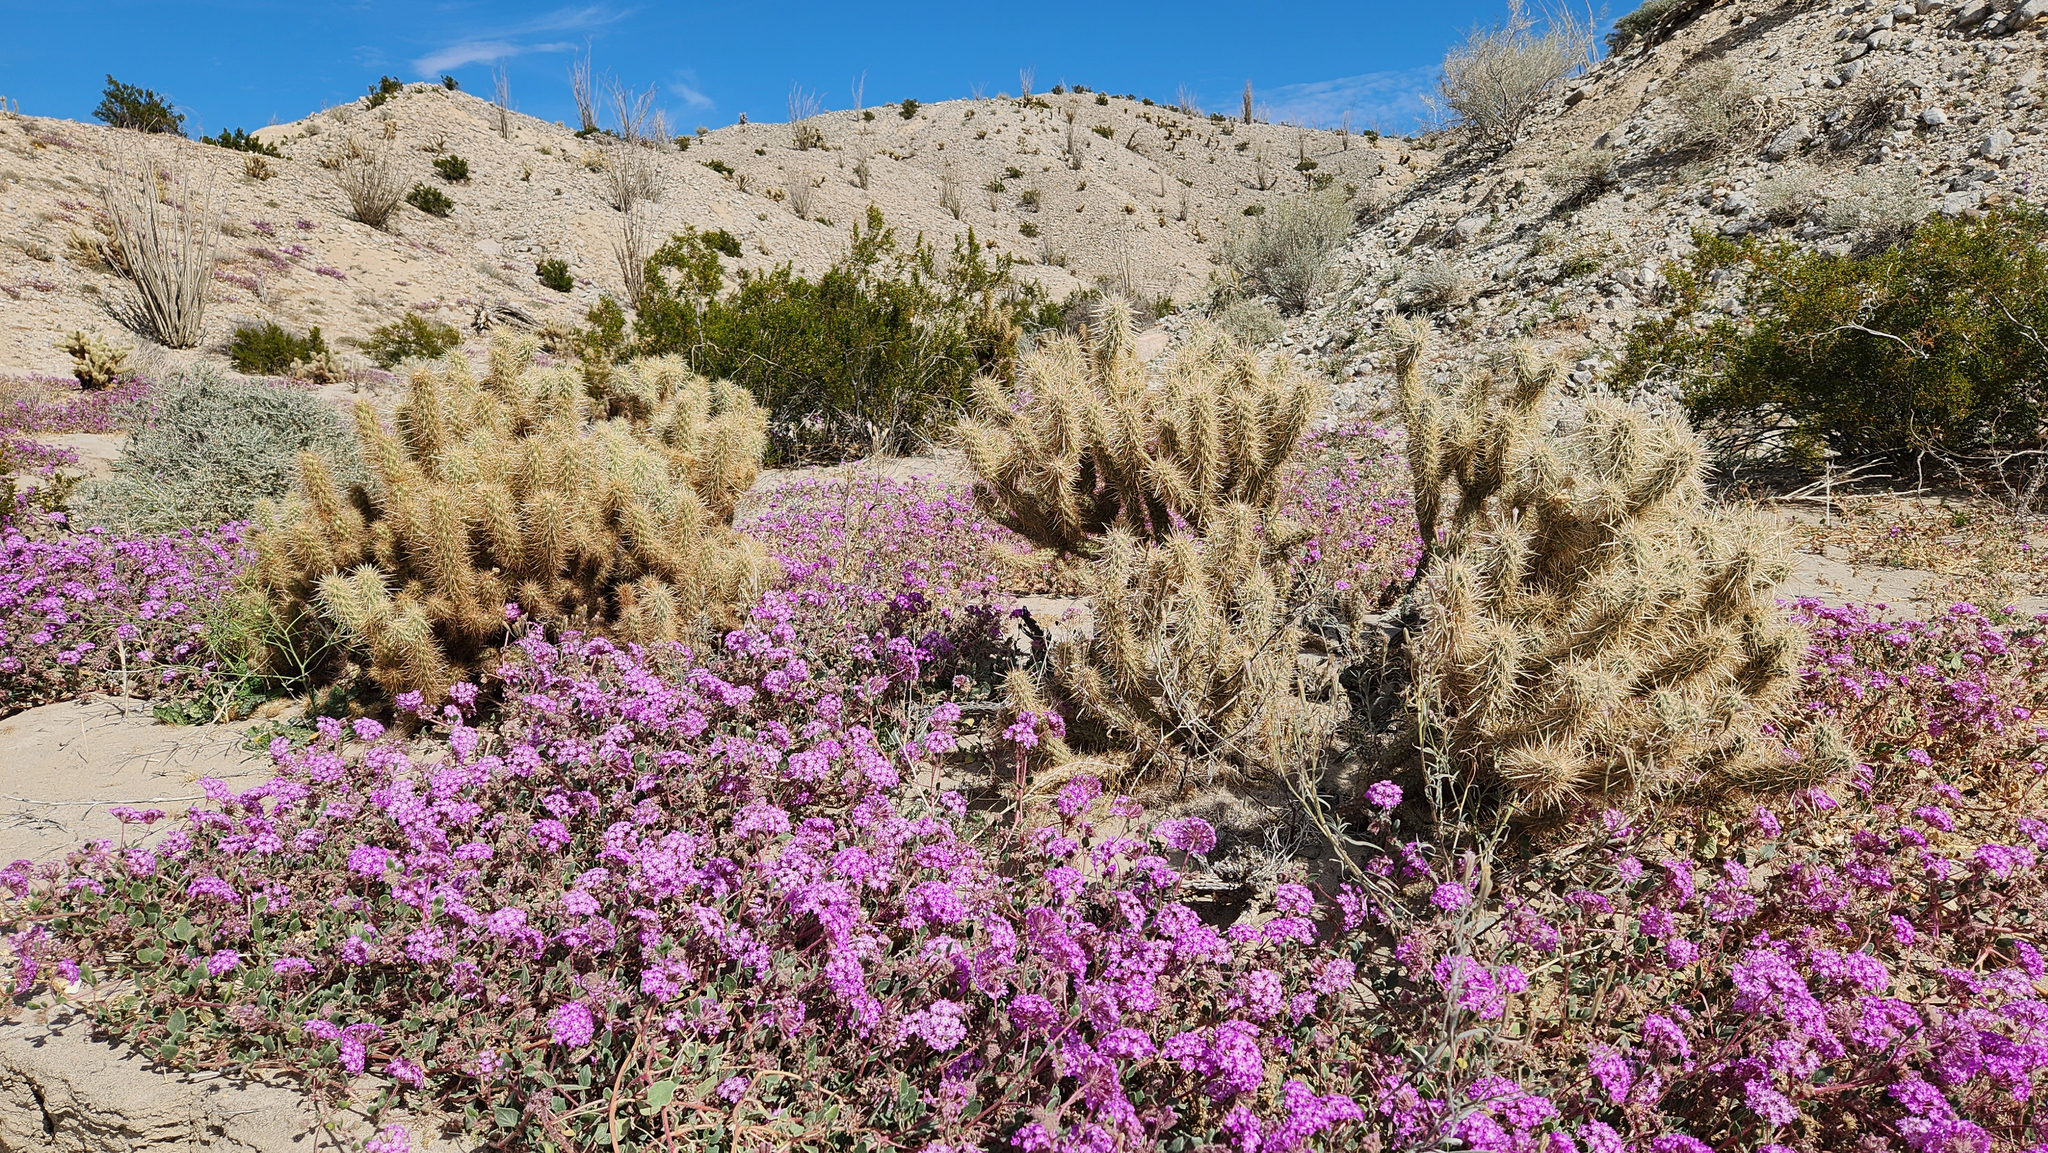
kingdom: Plantae
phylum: Tracheophyta
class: Magnoliopsida
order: Caryophyllales
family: Cactaceae
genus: Cylindropuntia
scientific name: Cylindropuntia ganderi
